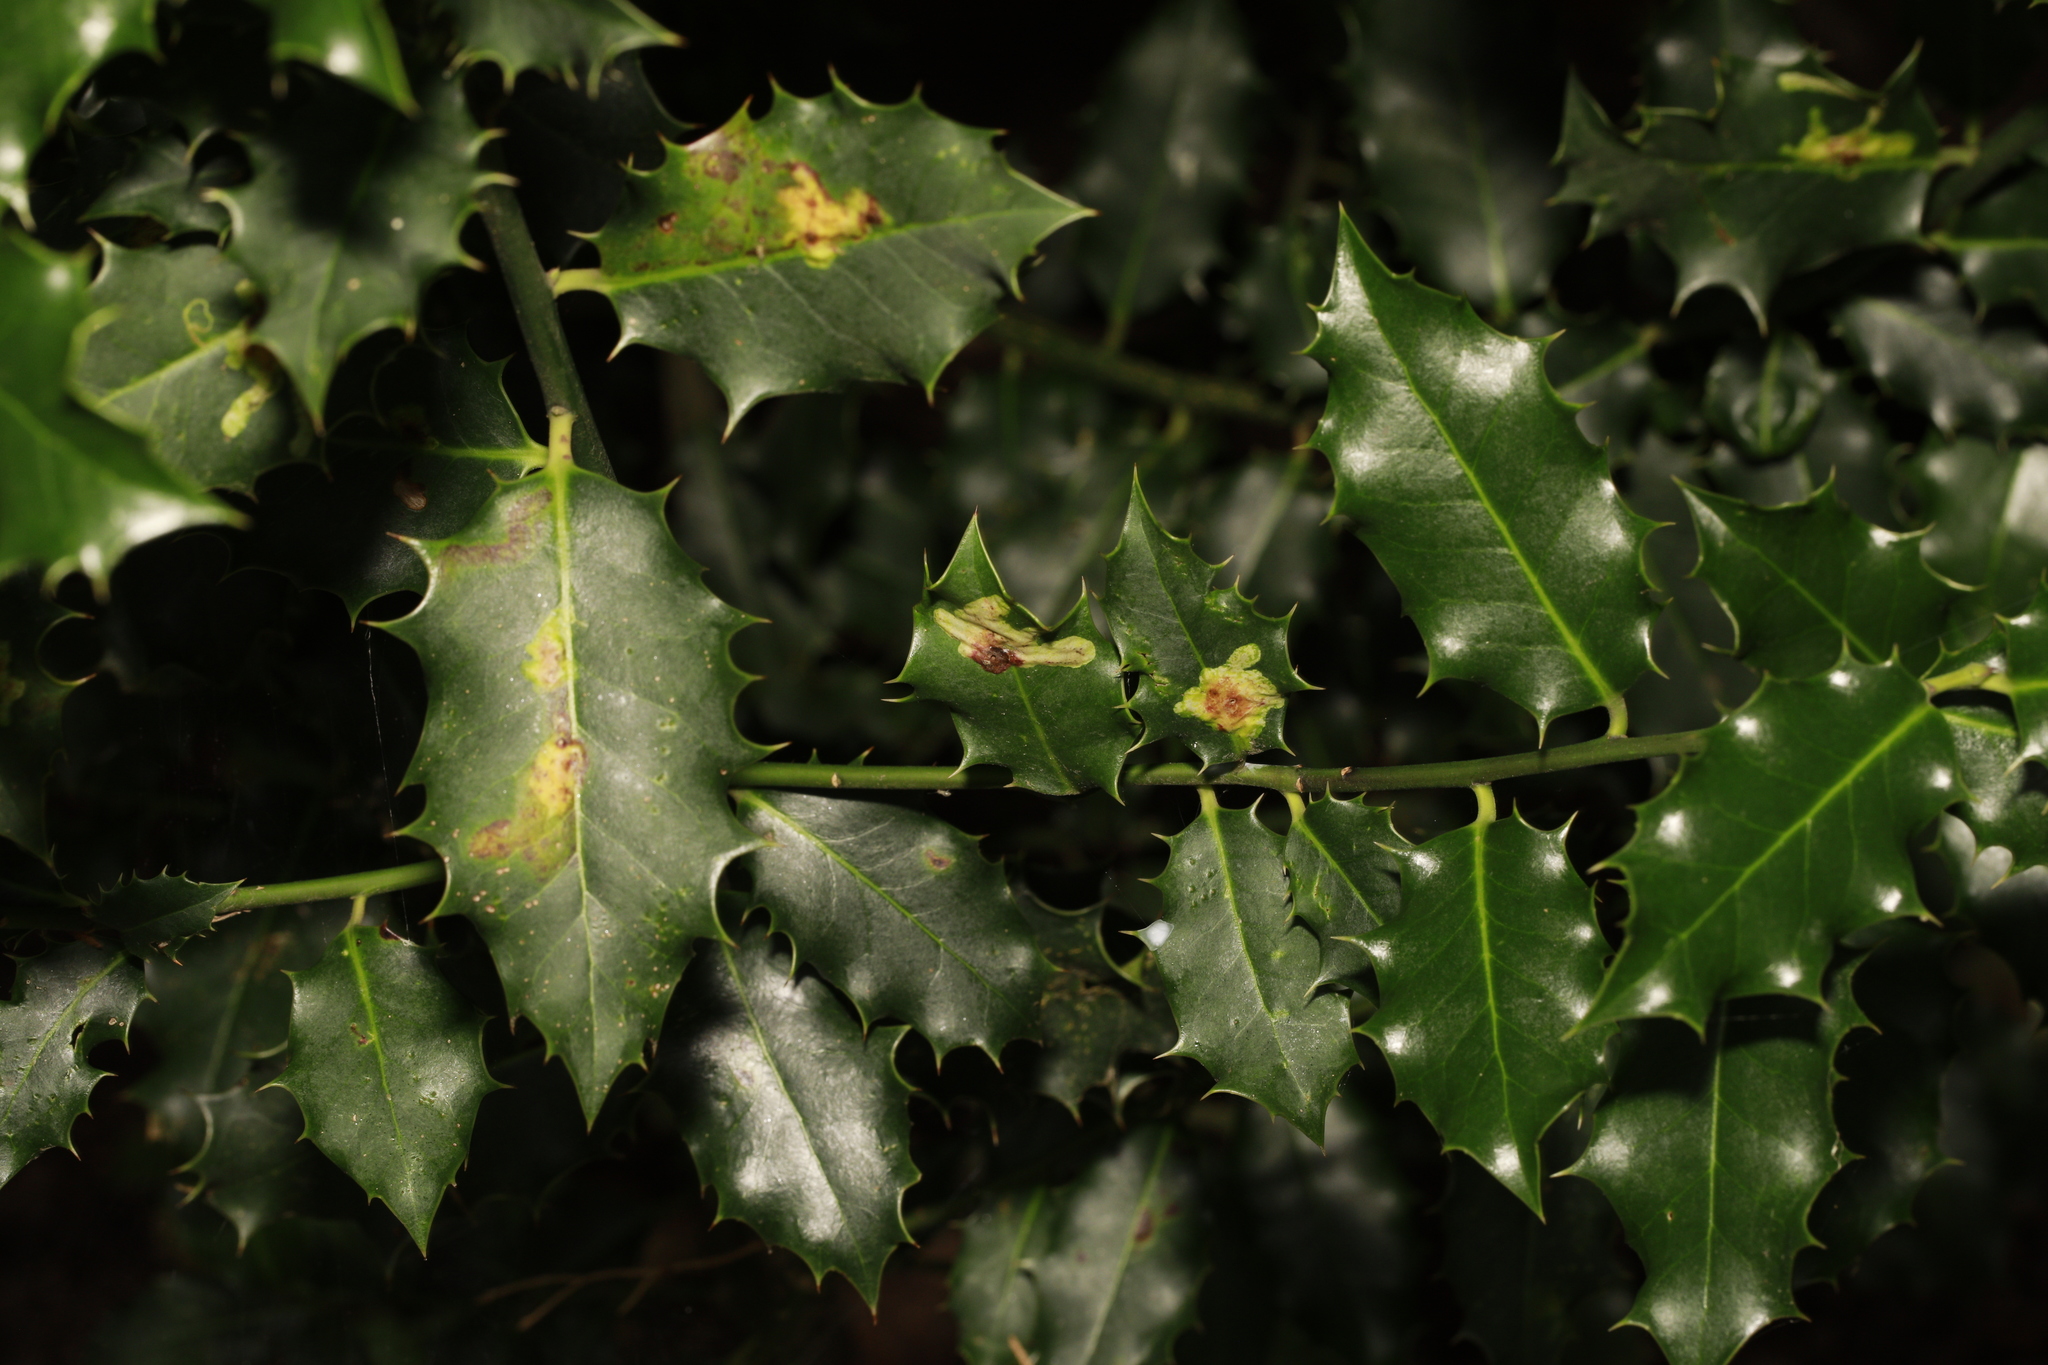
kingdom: Animalia
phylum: Arthropoda
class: Insecta
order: Diptera
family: Agromyzidae
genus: Phytomyza
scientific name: Phytomyza ilicis
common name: Holly leafminer
